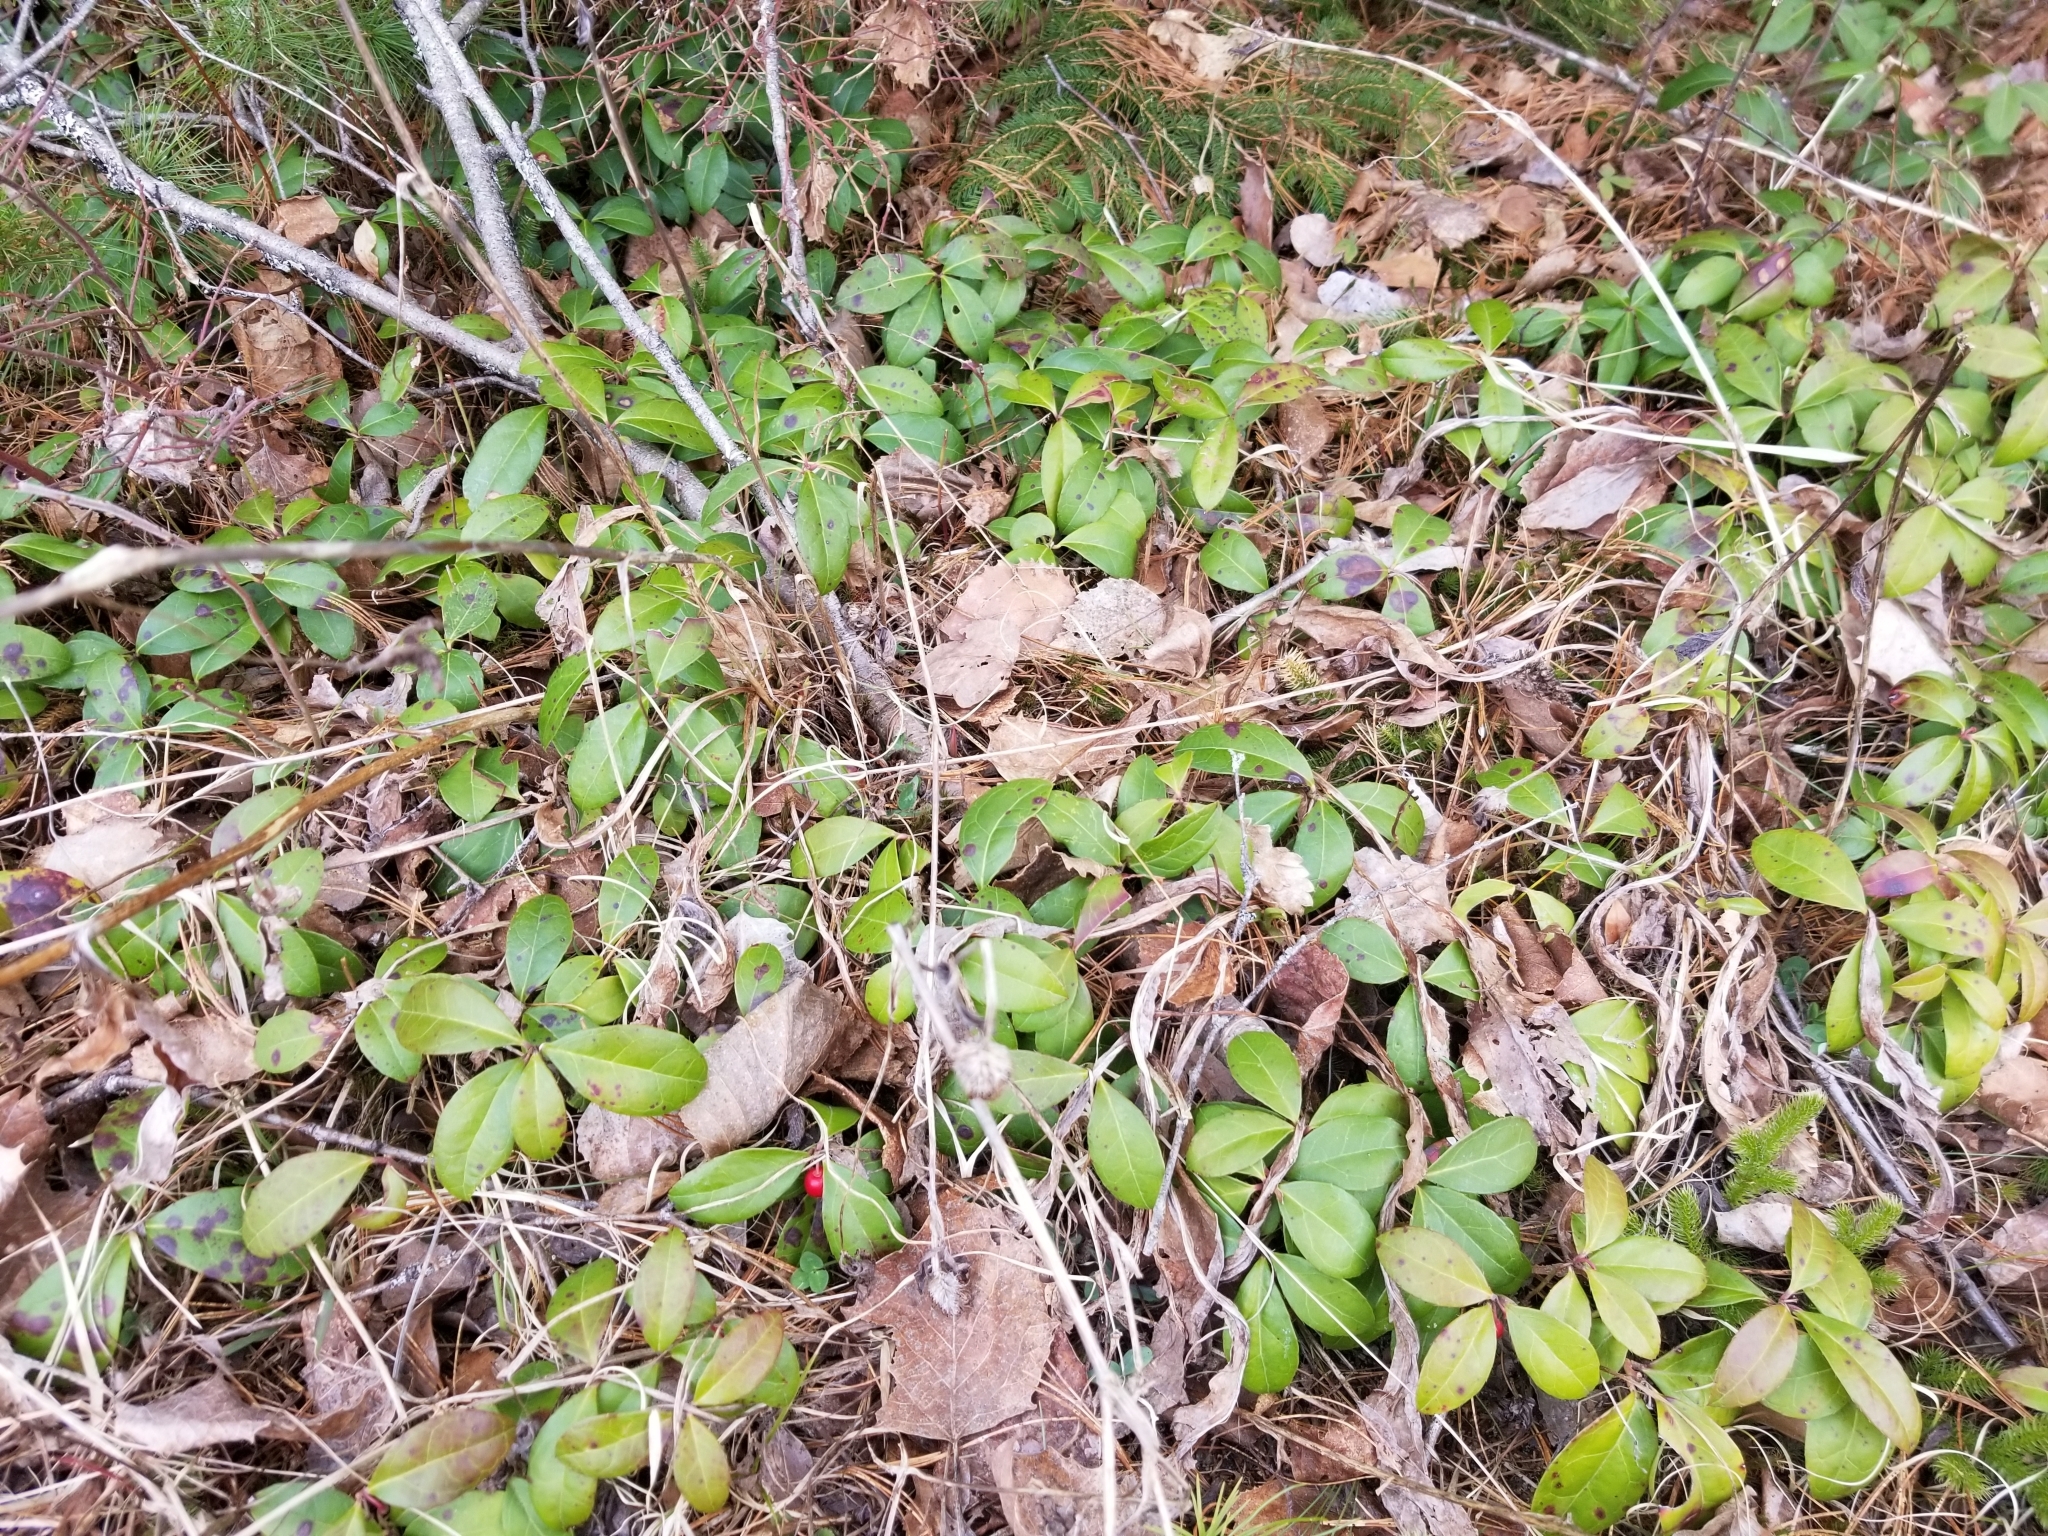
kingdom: Plantae
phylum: Tracheophyta
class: Magnoliopsida
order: Ericales
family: Ericaceae
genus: Gaultheria
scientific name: Gaultheria procumbens
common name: Checkerberry
